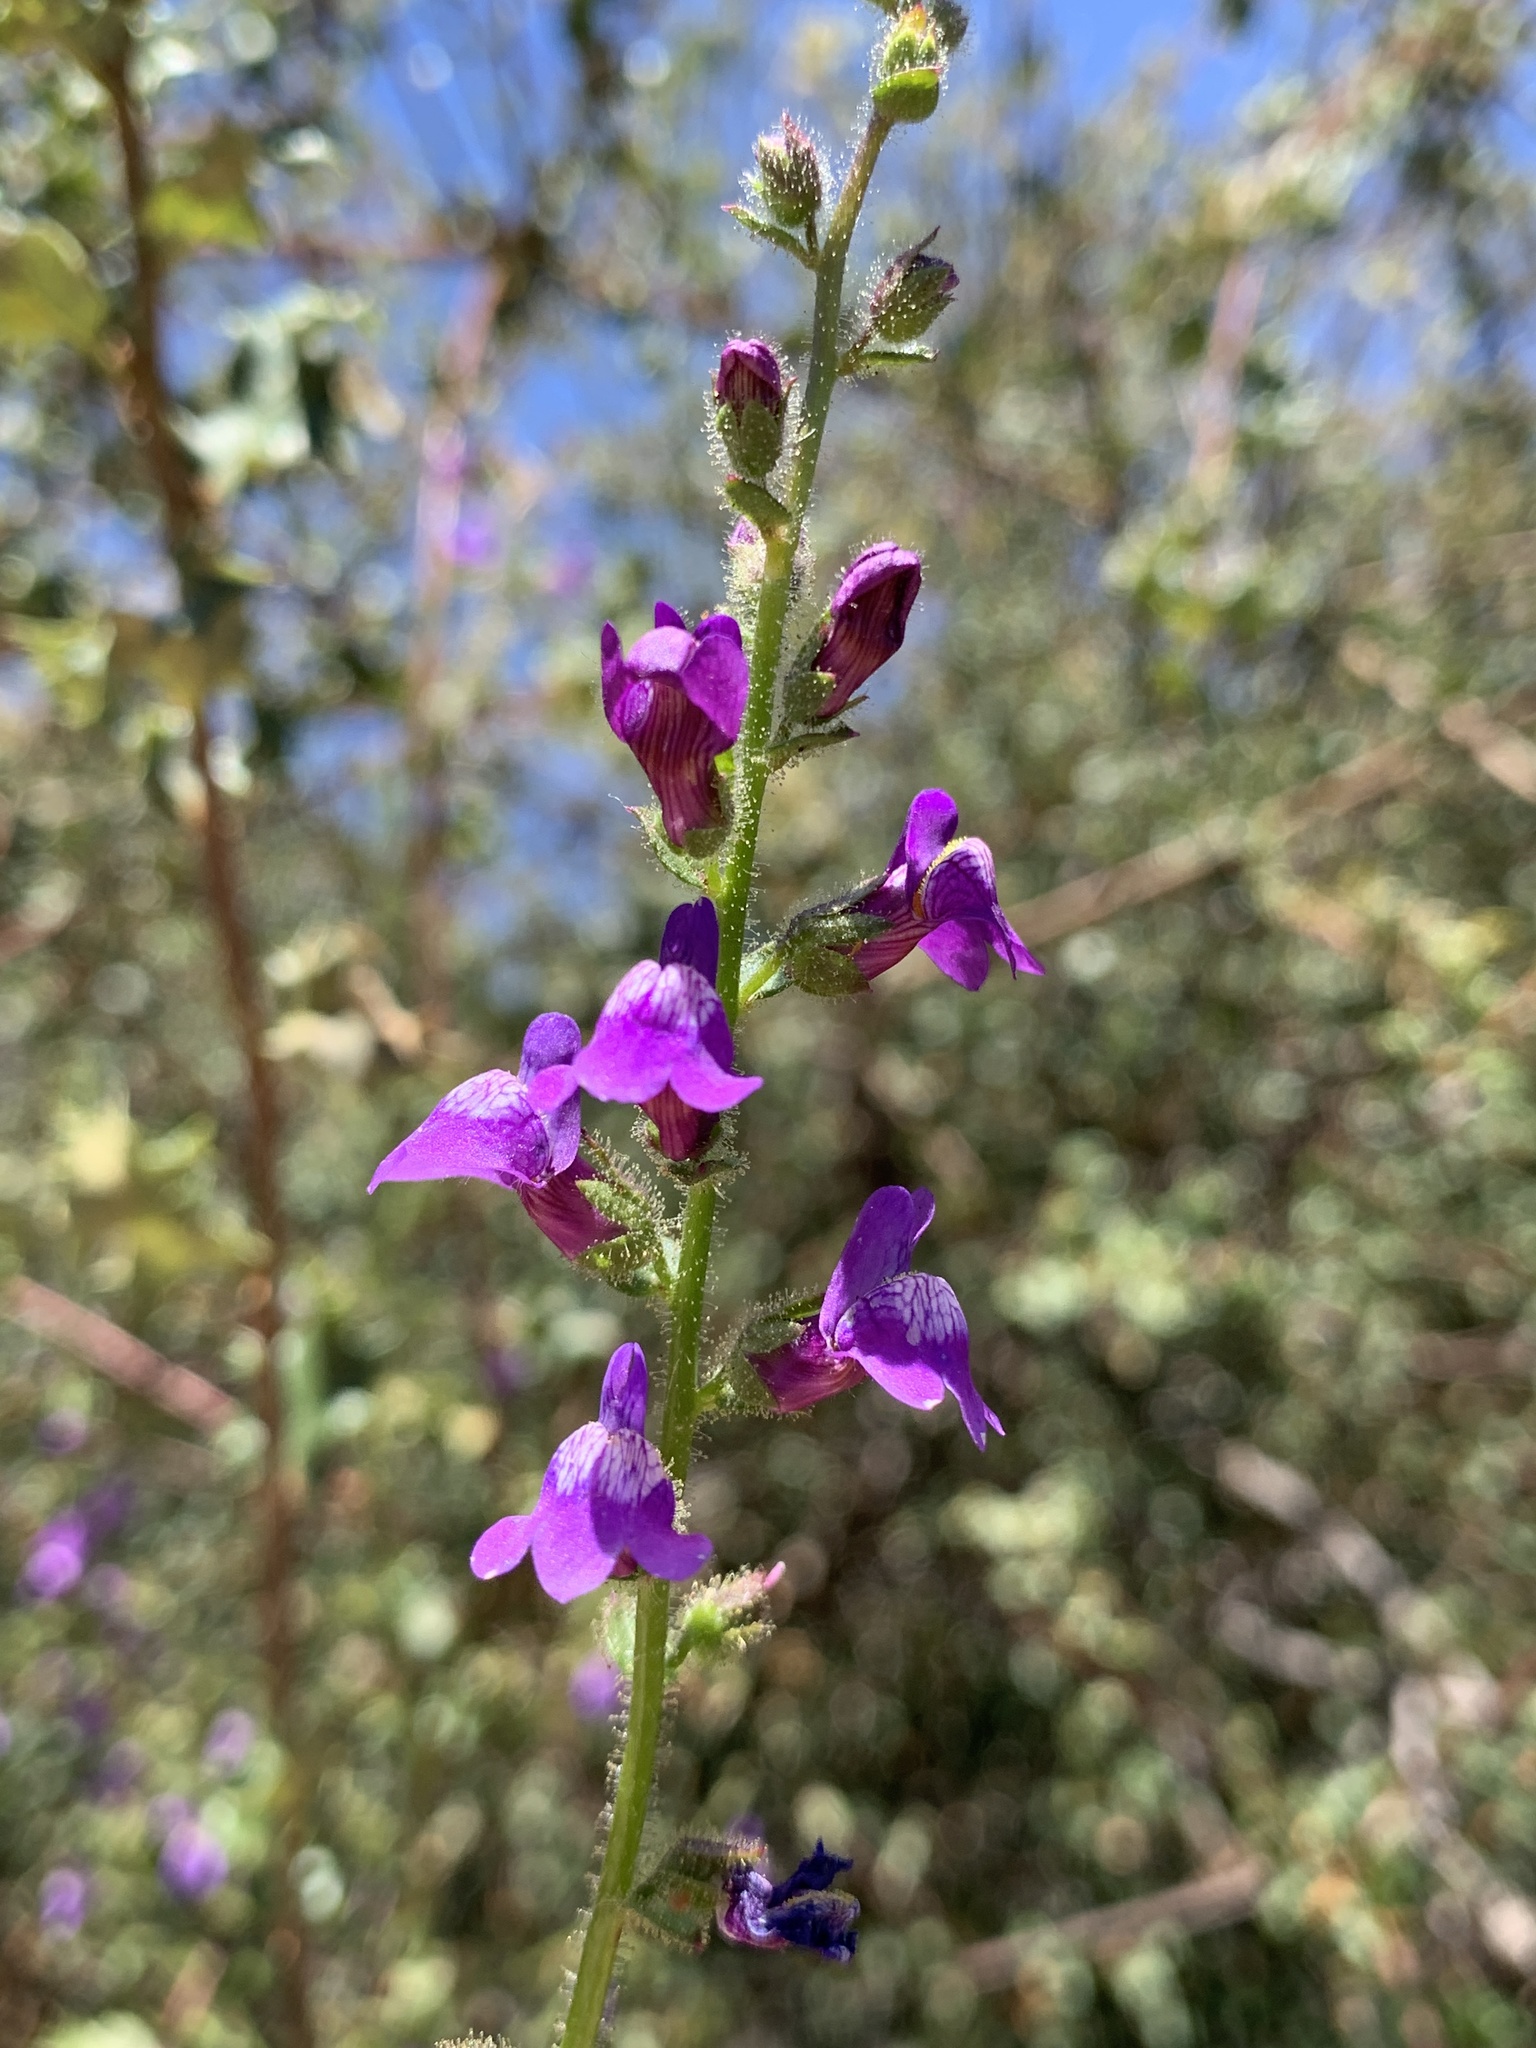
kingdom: Plantae
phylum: Tracheophyta
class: Magnoliopsida
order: Lamiales
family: Plantaginaceae
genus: Sairocarpus
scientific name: Sairocarpus nuttallianus
